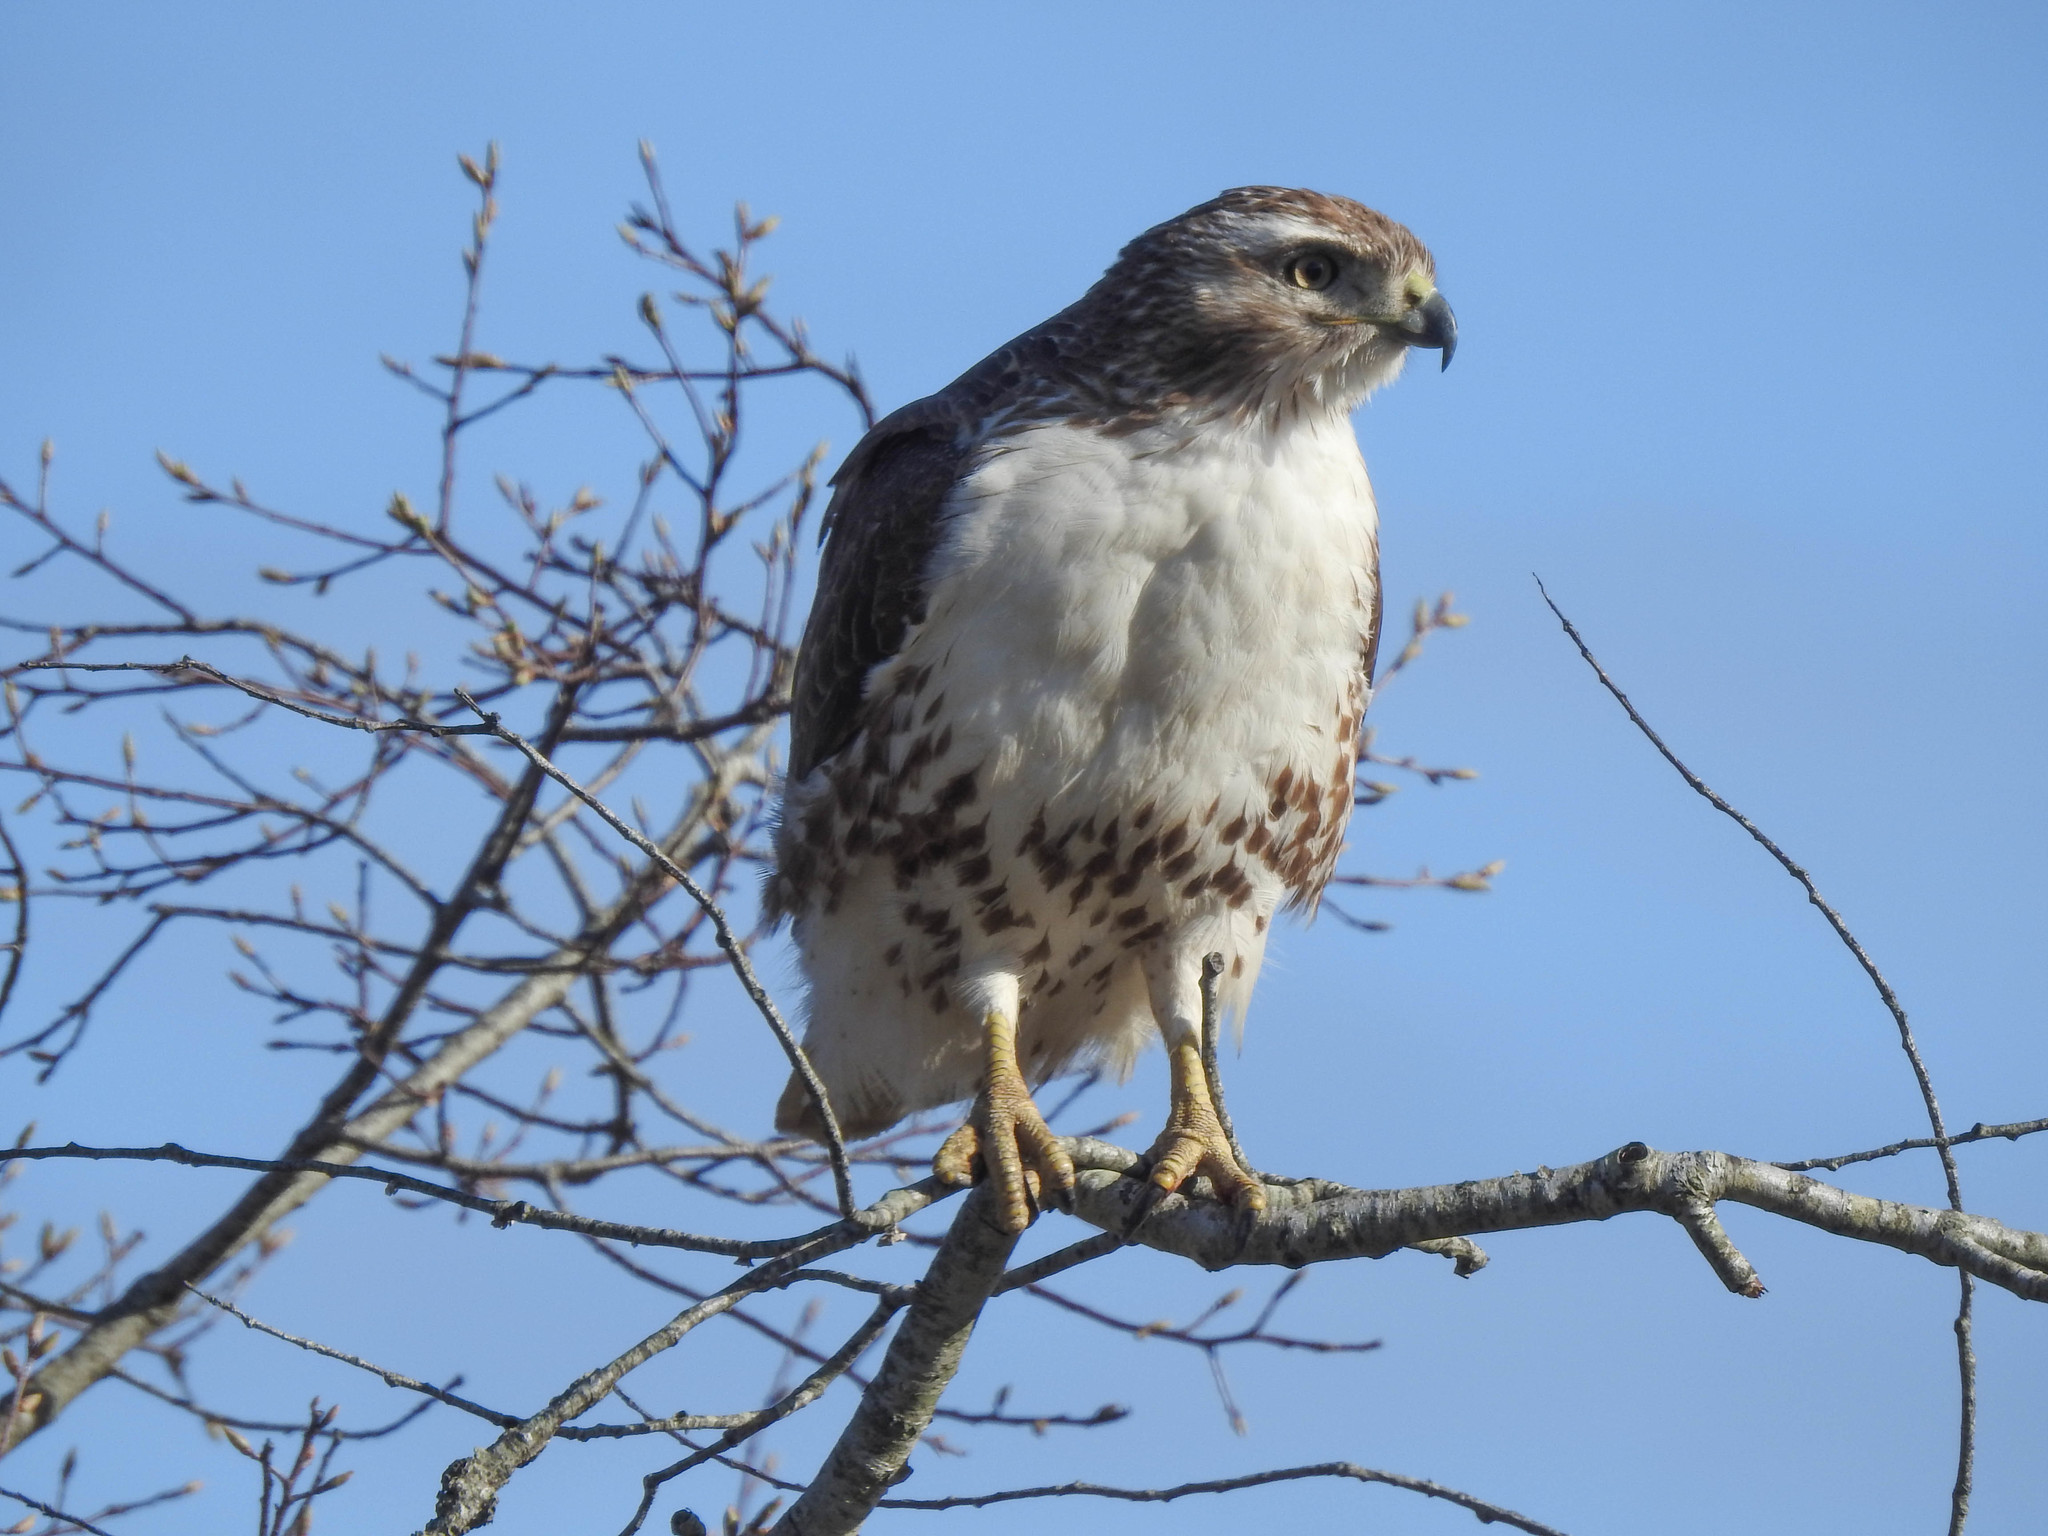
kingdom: Animalia
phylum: Chordata
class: Aves
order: Accipitriformes
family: Accipitridae
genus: Buteo
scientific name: Buteo jamaicensis
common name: Red-tailed hawk
